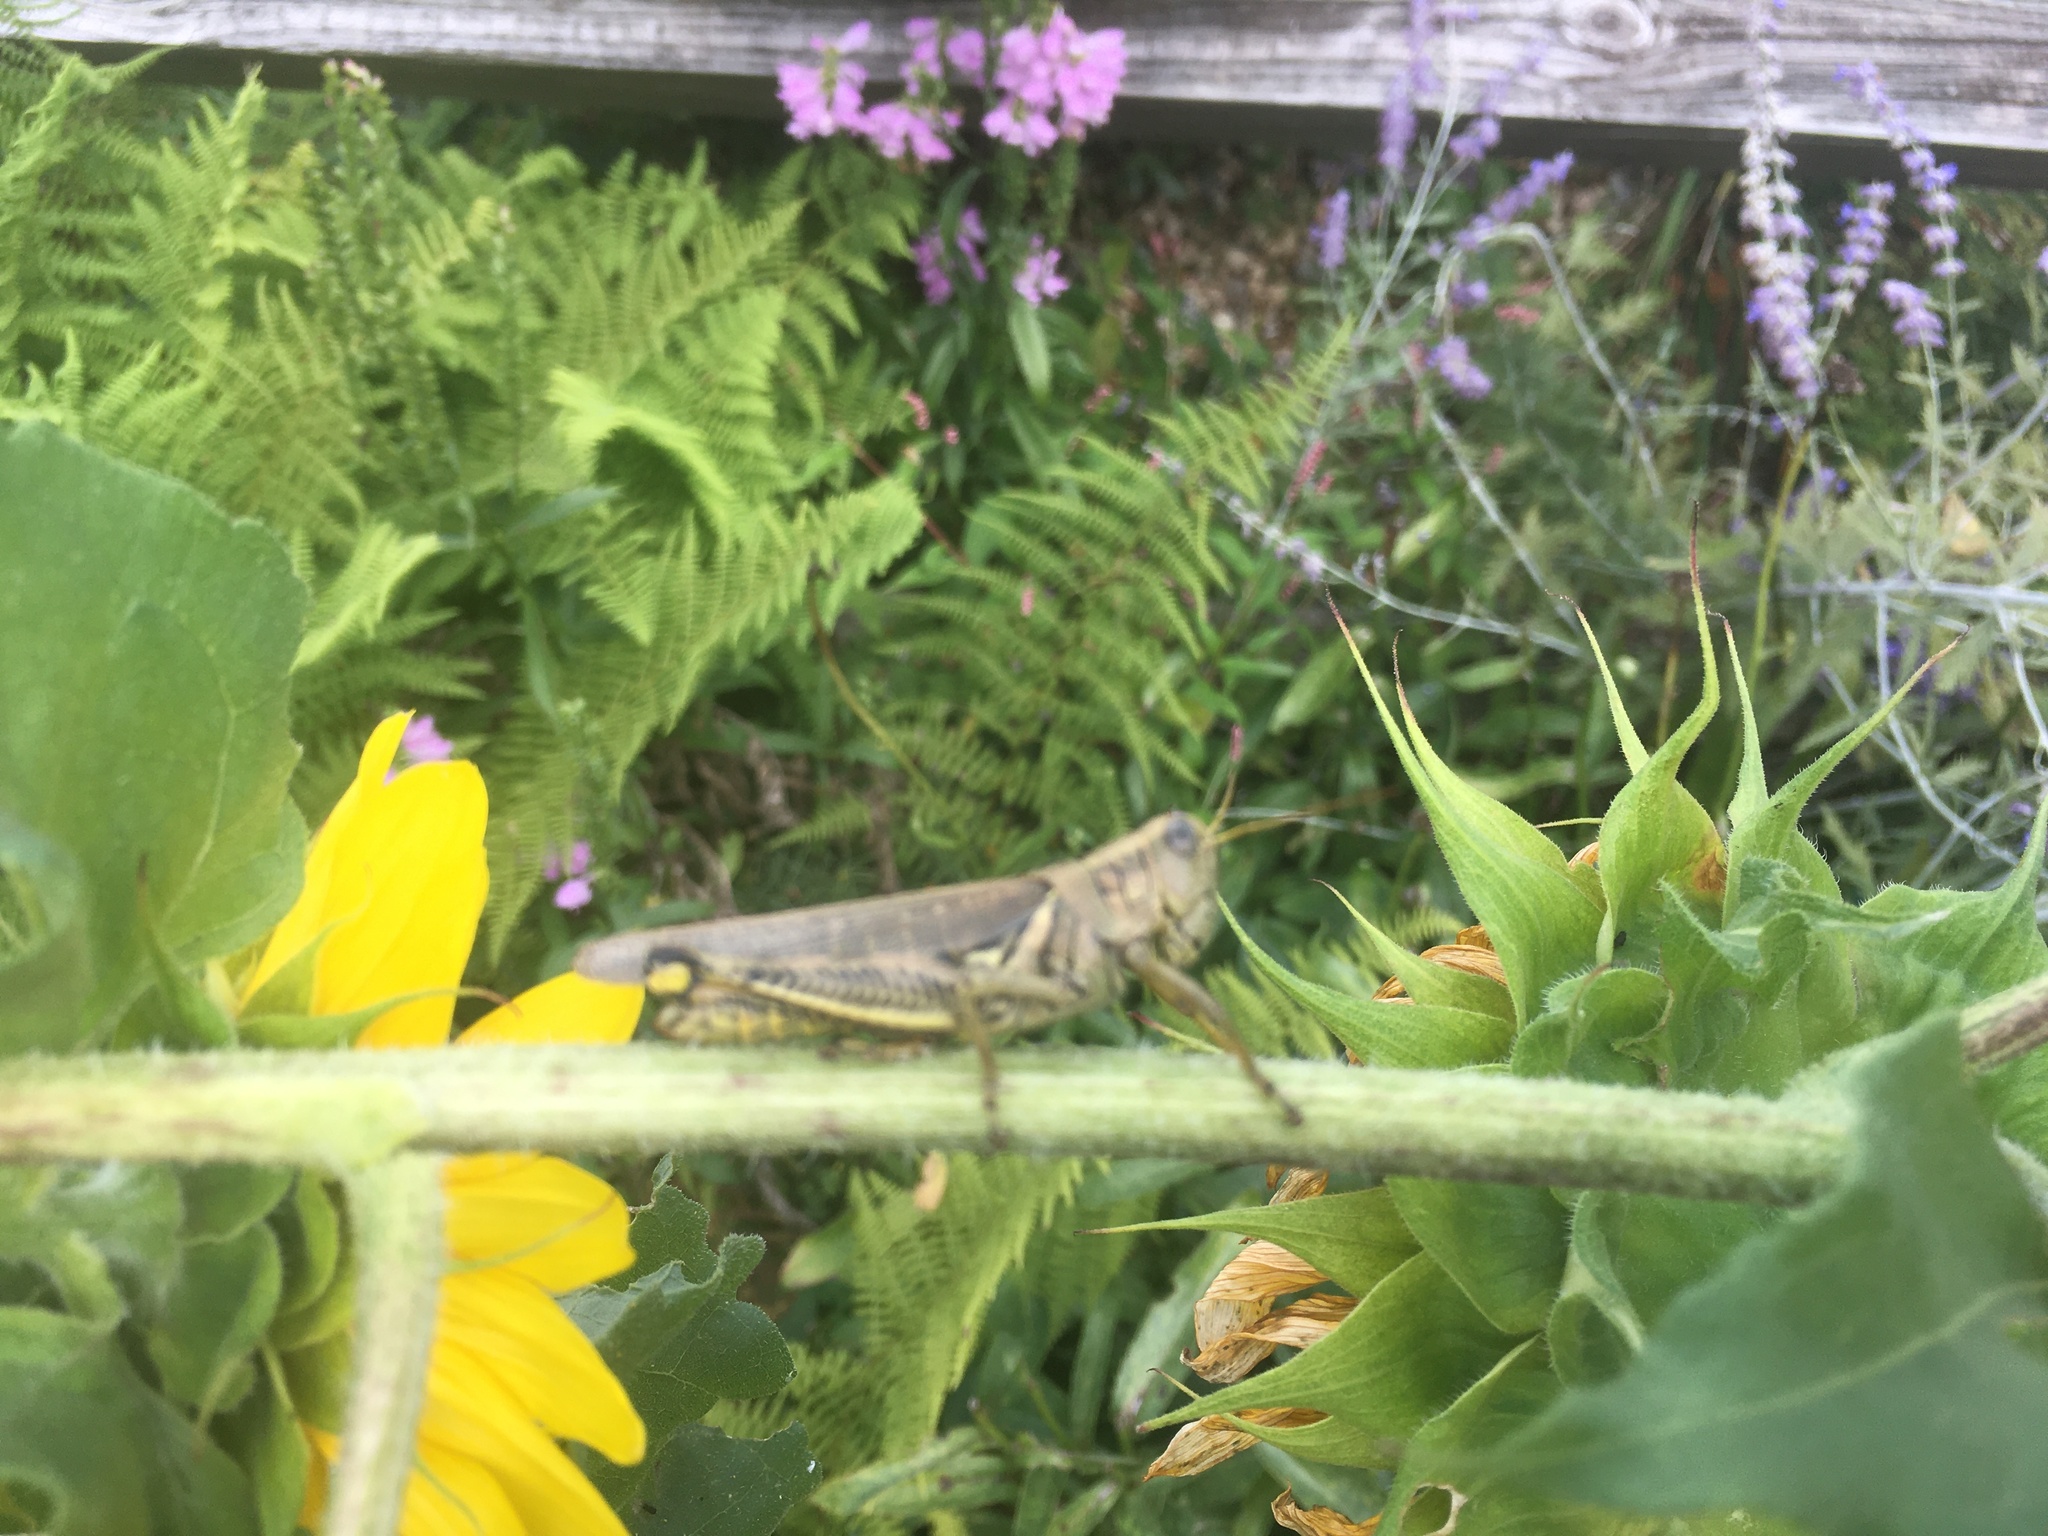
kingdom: Animalia
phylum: Arthropoda
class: Insecta
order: Orthoptera
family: Acrididae
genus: Melanoplus
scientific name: Melanoplus differentialis
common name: Differential grasshopper
